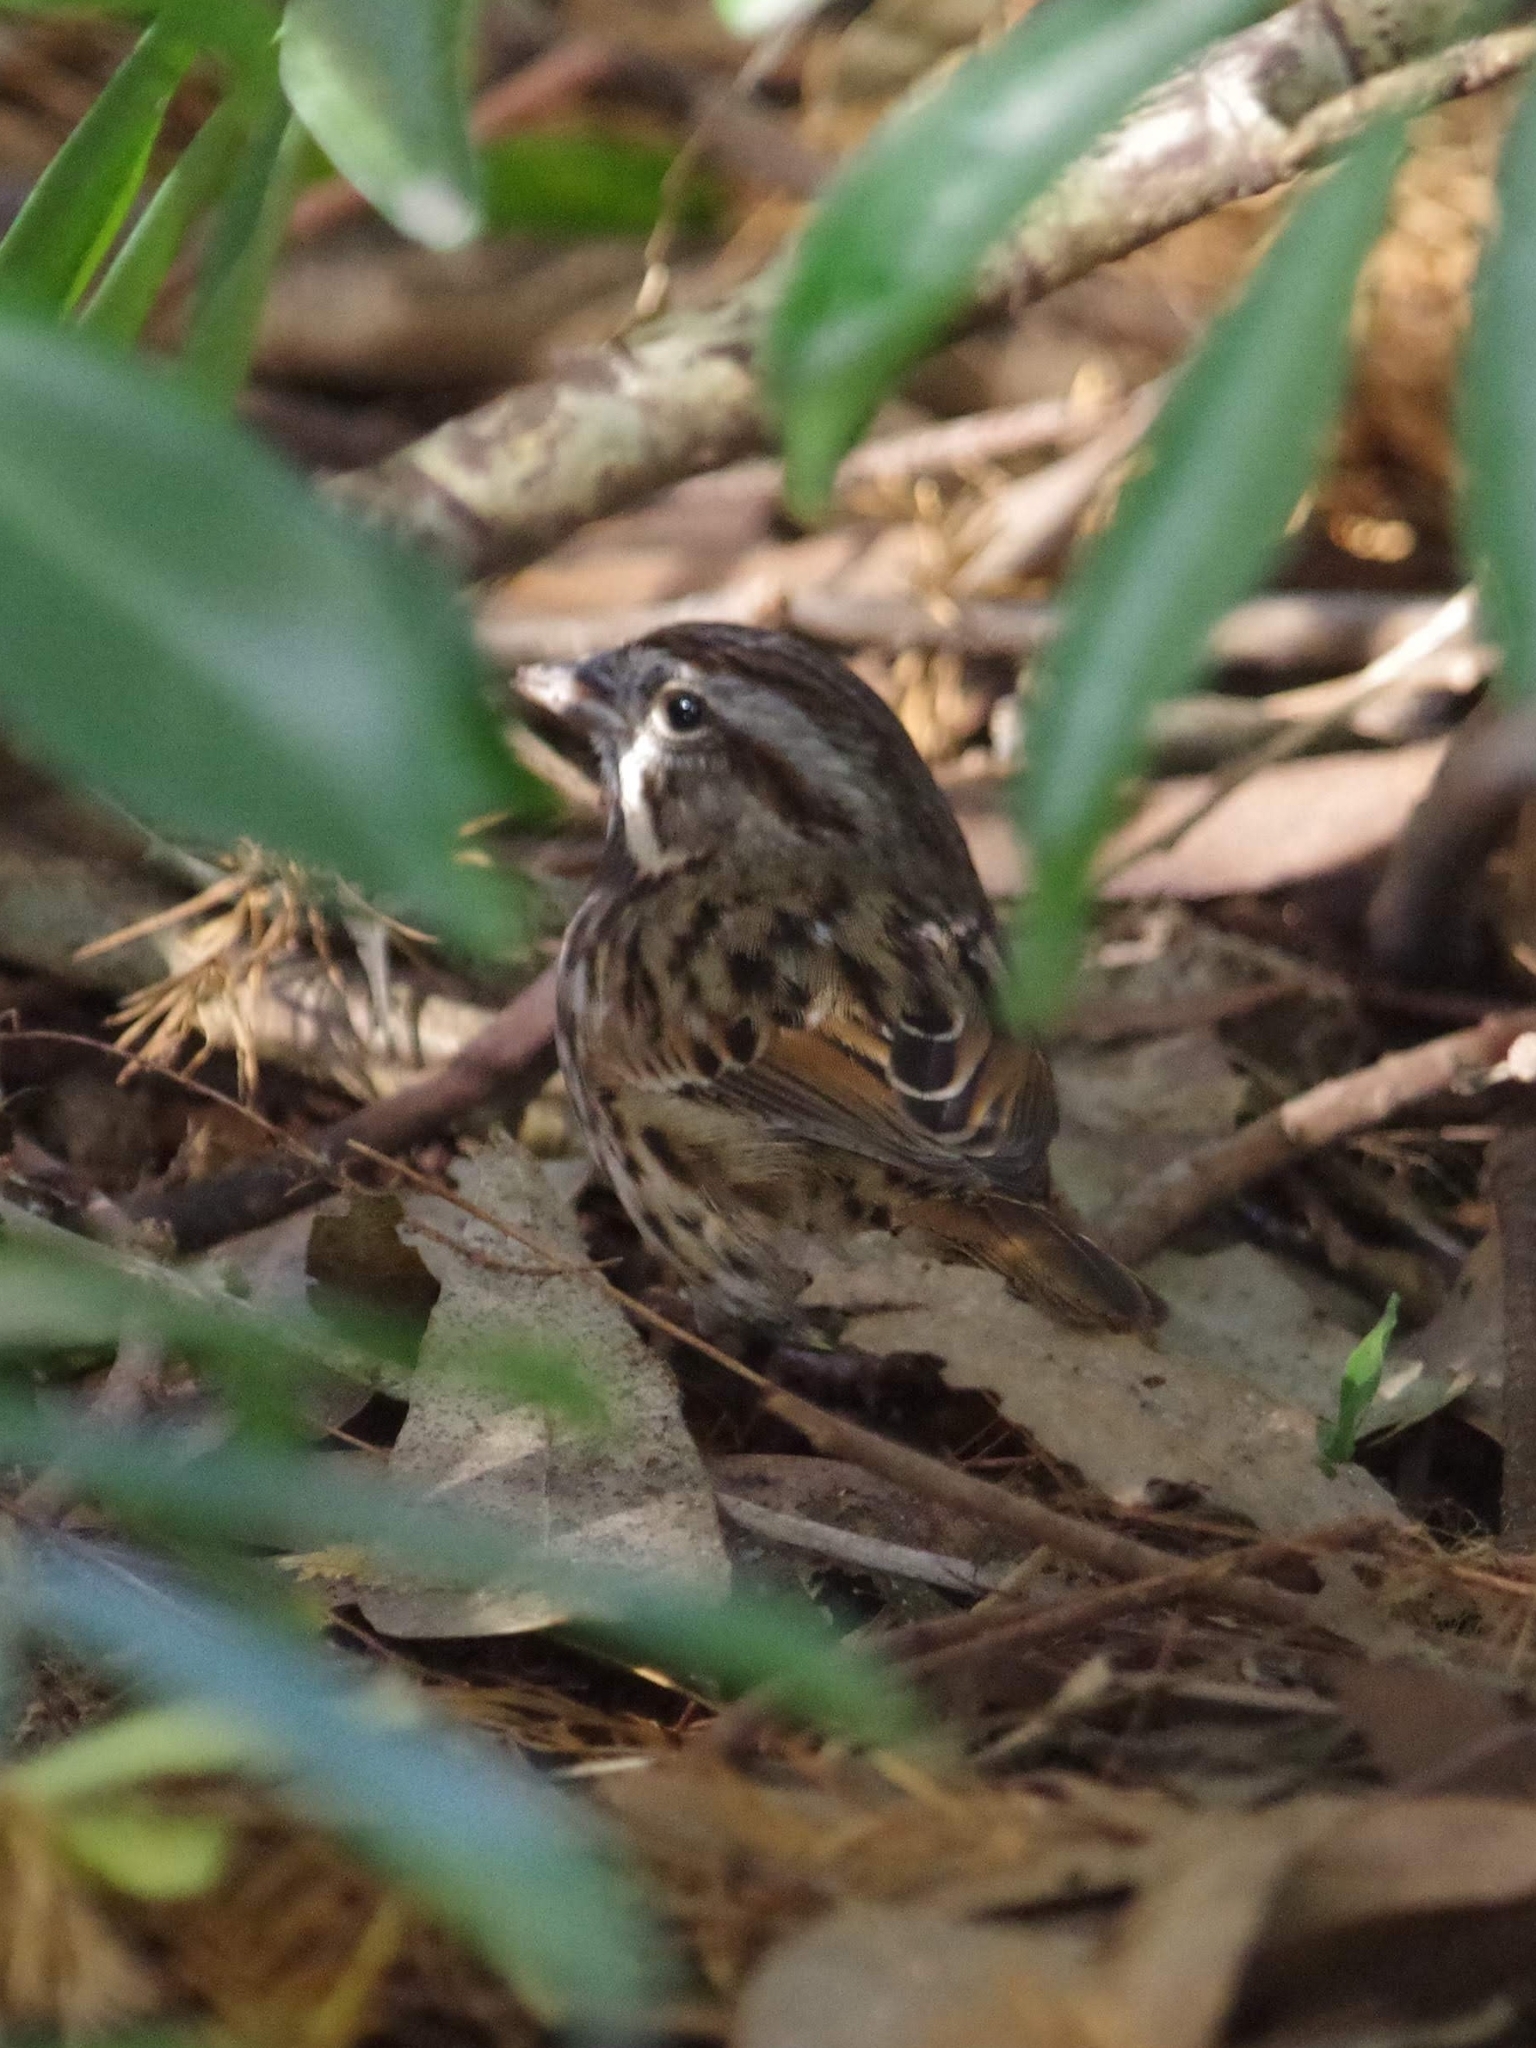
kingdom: Animalia
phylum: Chordata
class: Aves
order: Passeriformes
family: Passerellidae
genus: Melospiza
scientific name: Melospiza melodia
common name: Song sparrow
